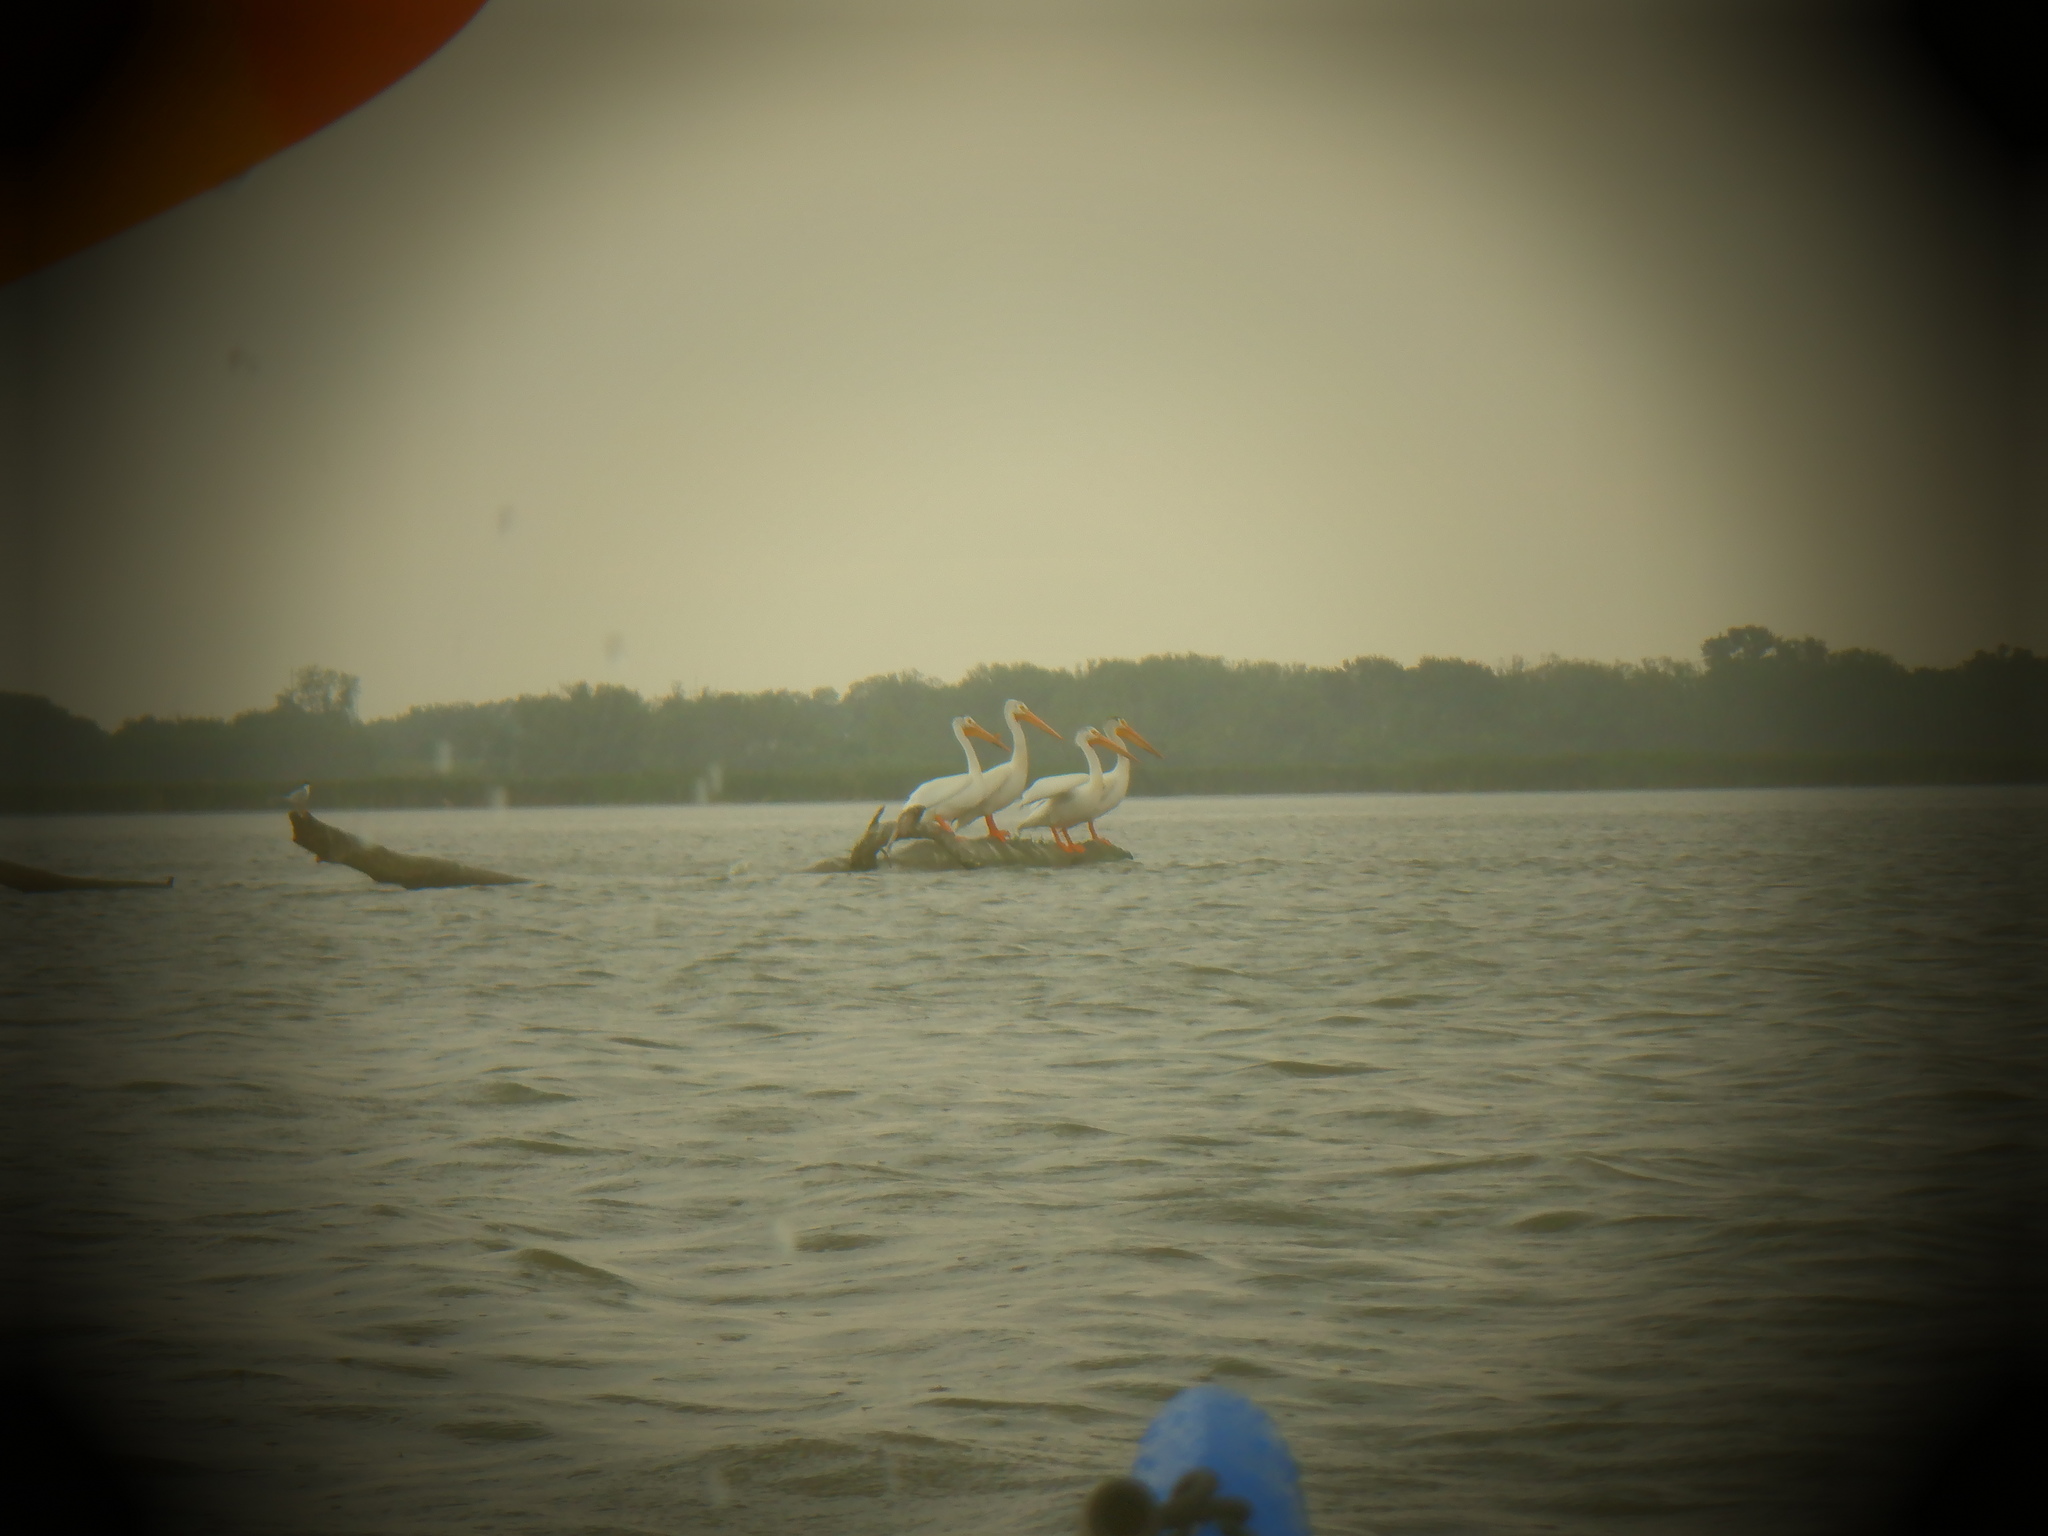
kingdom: Animalia
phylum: Chordata
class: Aves
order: Pelecaniformes
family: Pelecanidae
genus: Pelecanus
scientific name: Pelecanus erythrorhynchos
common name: American white pelican
